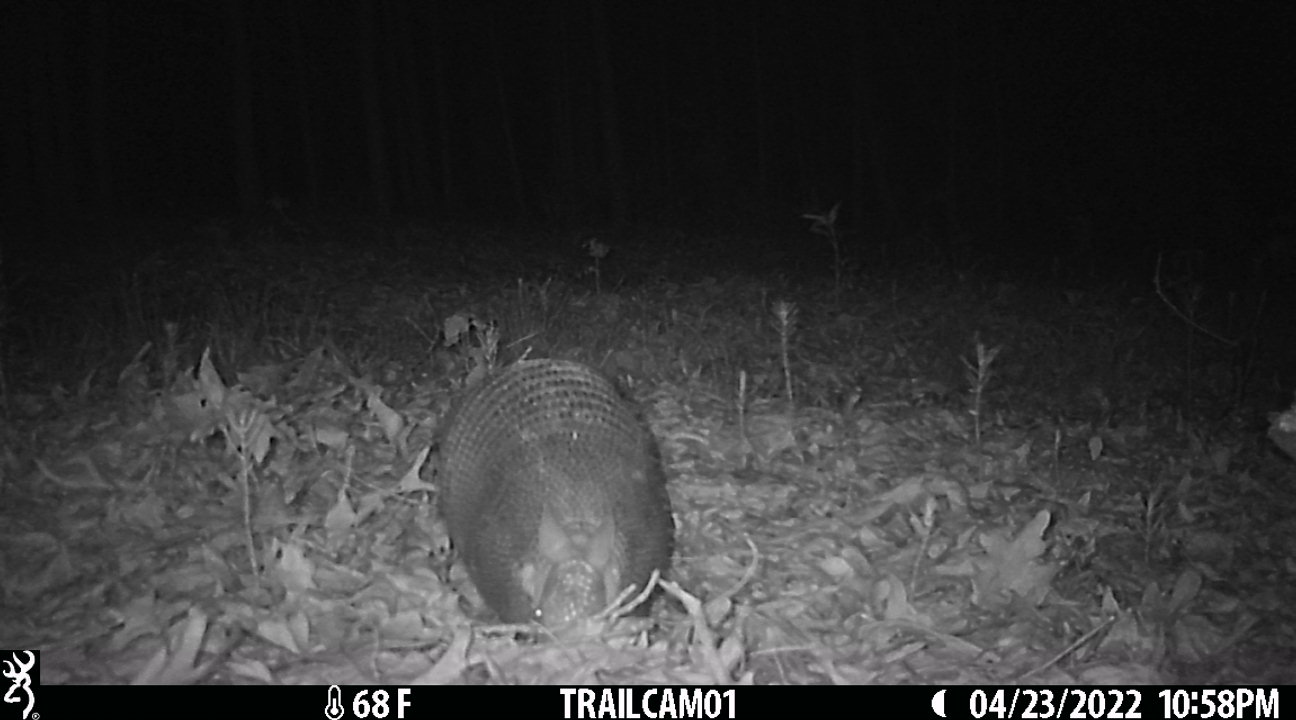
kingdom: Animalia
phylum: Chordata
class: Mammalia
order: Cingulata
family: Dasypodidae
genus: Dasypus
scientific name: Dasypus novemcinctus
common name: Nine-banded armadillo
